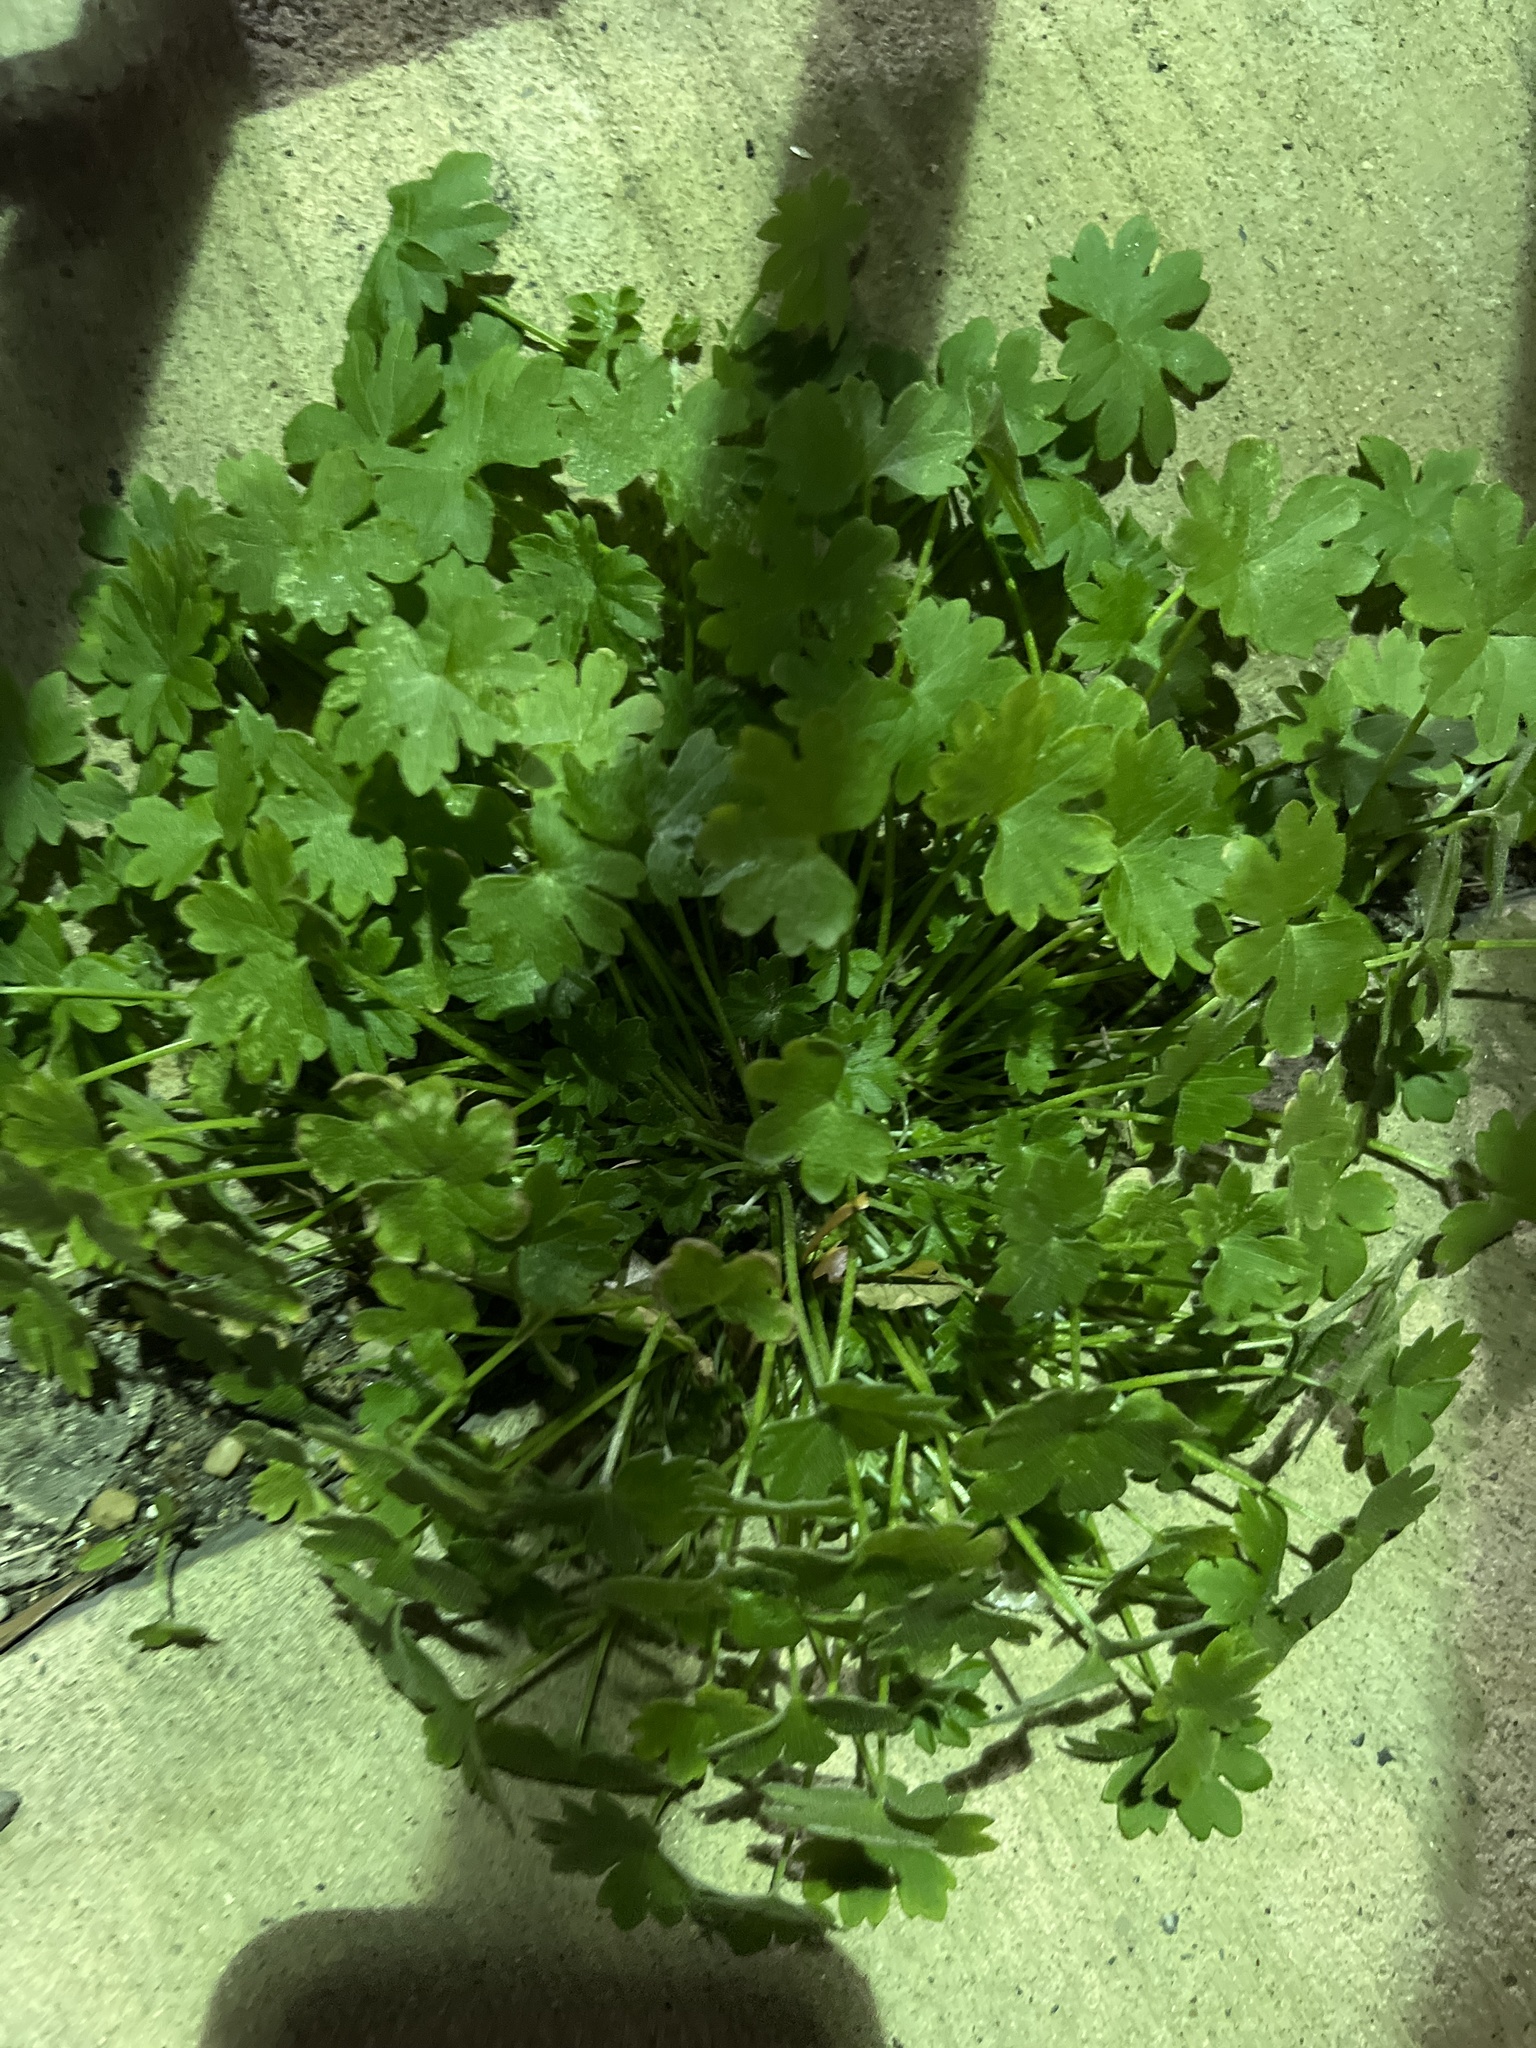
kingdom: Plantae
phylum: Tracheophyta
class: Magnoliopsida
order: Apiales
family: Apiaceae
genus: Bowlesia
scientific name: Bowlesia incana
